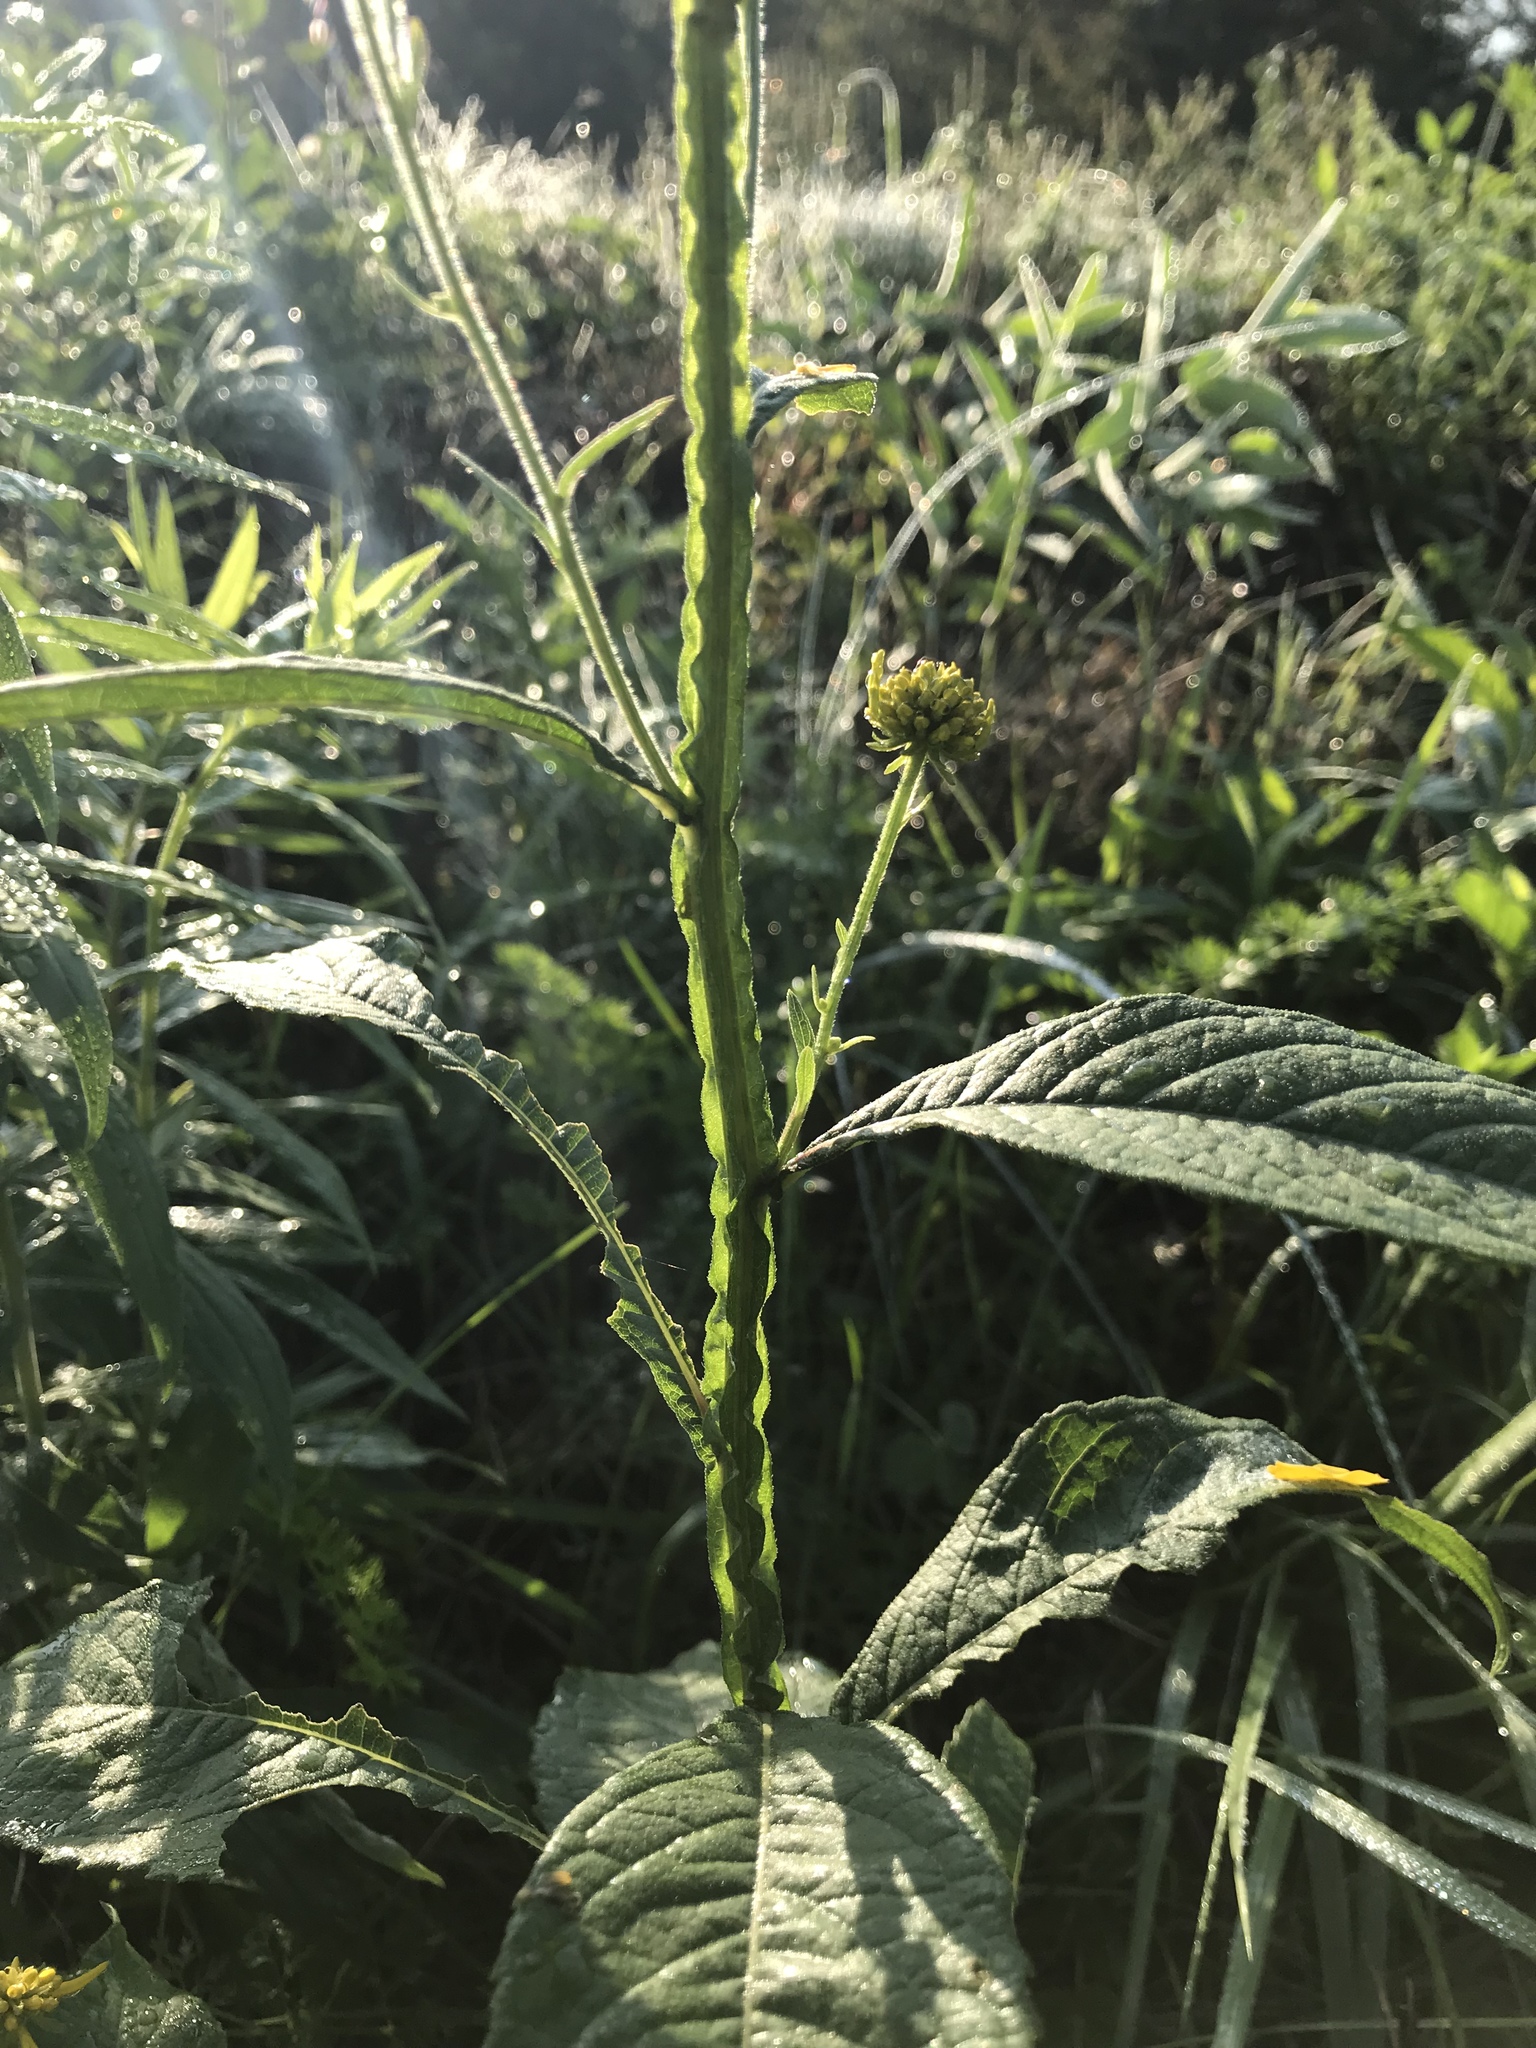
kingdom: Plantae
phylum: Tracheophyta
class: Magnoliopsida
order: Asterales
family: Asteraceae
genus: Verbesina
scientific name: Verbesina alternifolia
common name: Wingstem
